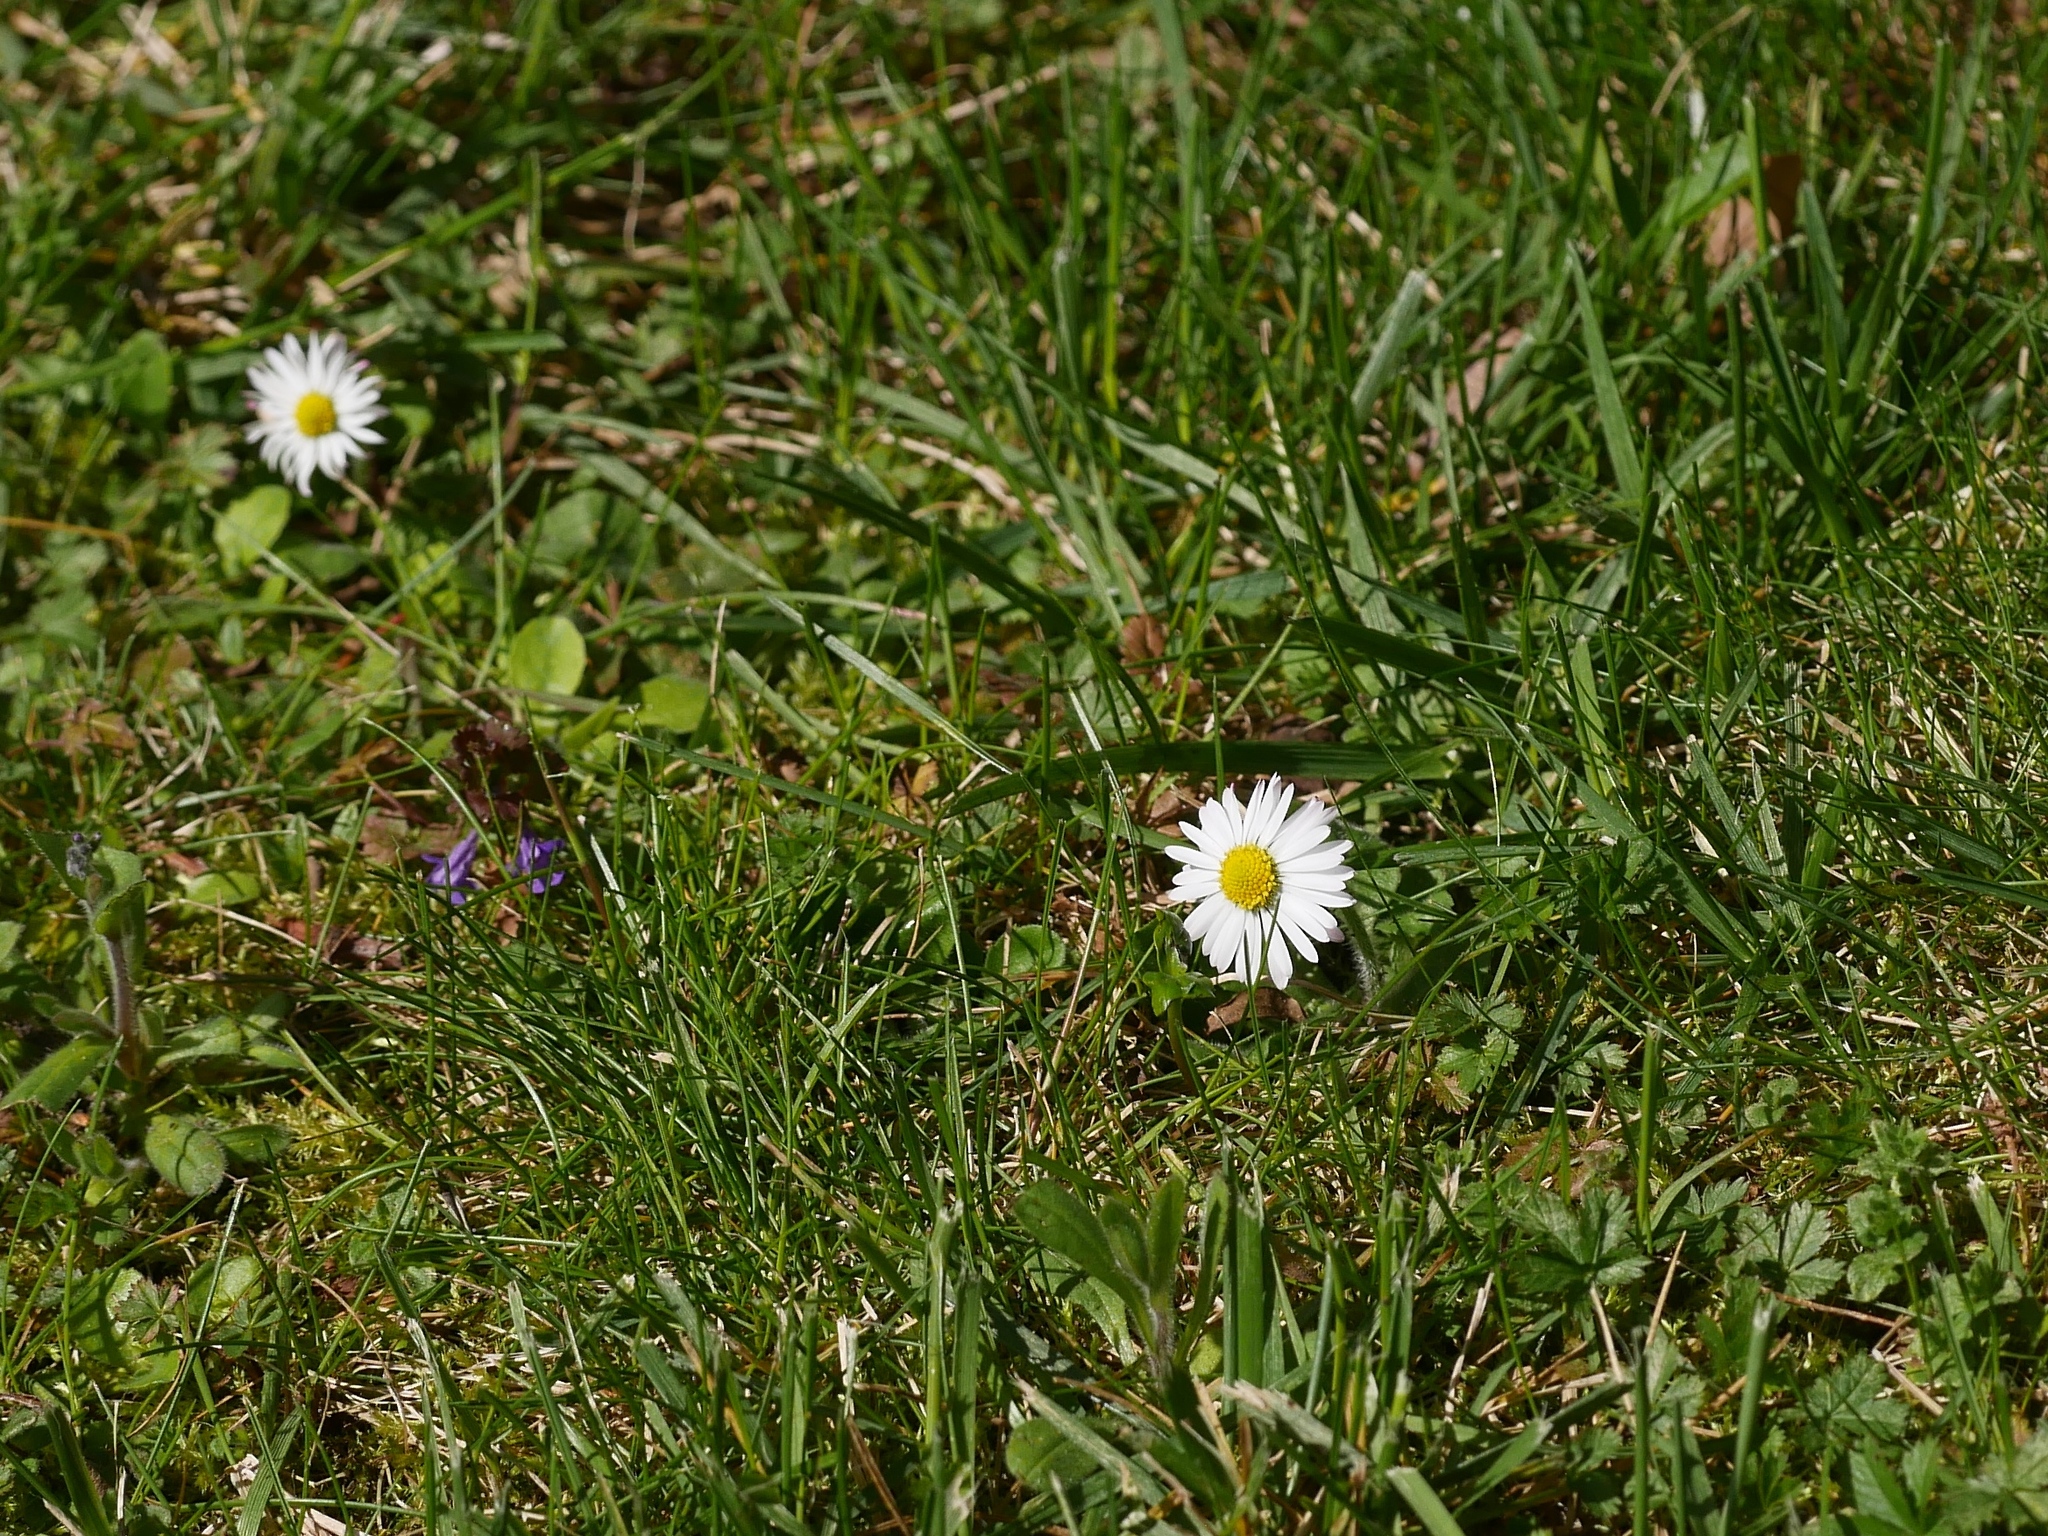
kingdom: Plantae
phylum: Tracheophyta
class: Magnoliopsida
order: Asterales
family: Asteraceae
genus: Bellis
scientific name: Bellis perennis
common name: Lawndaisy
